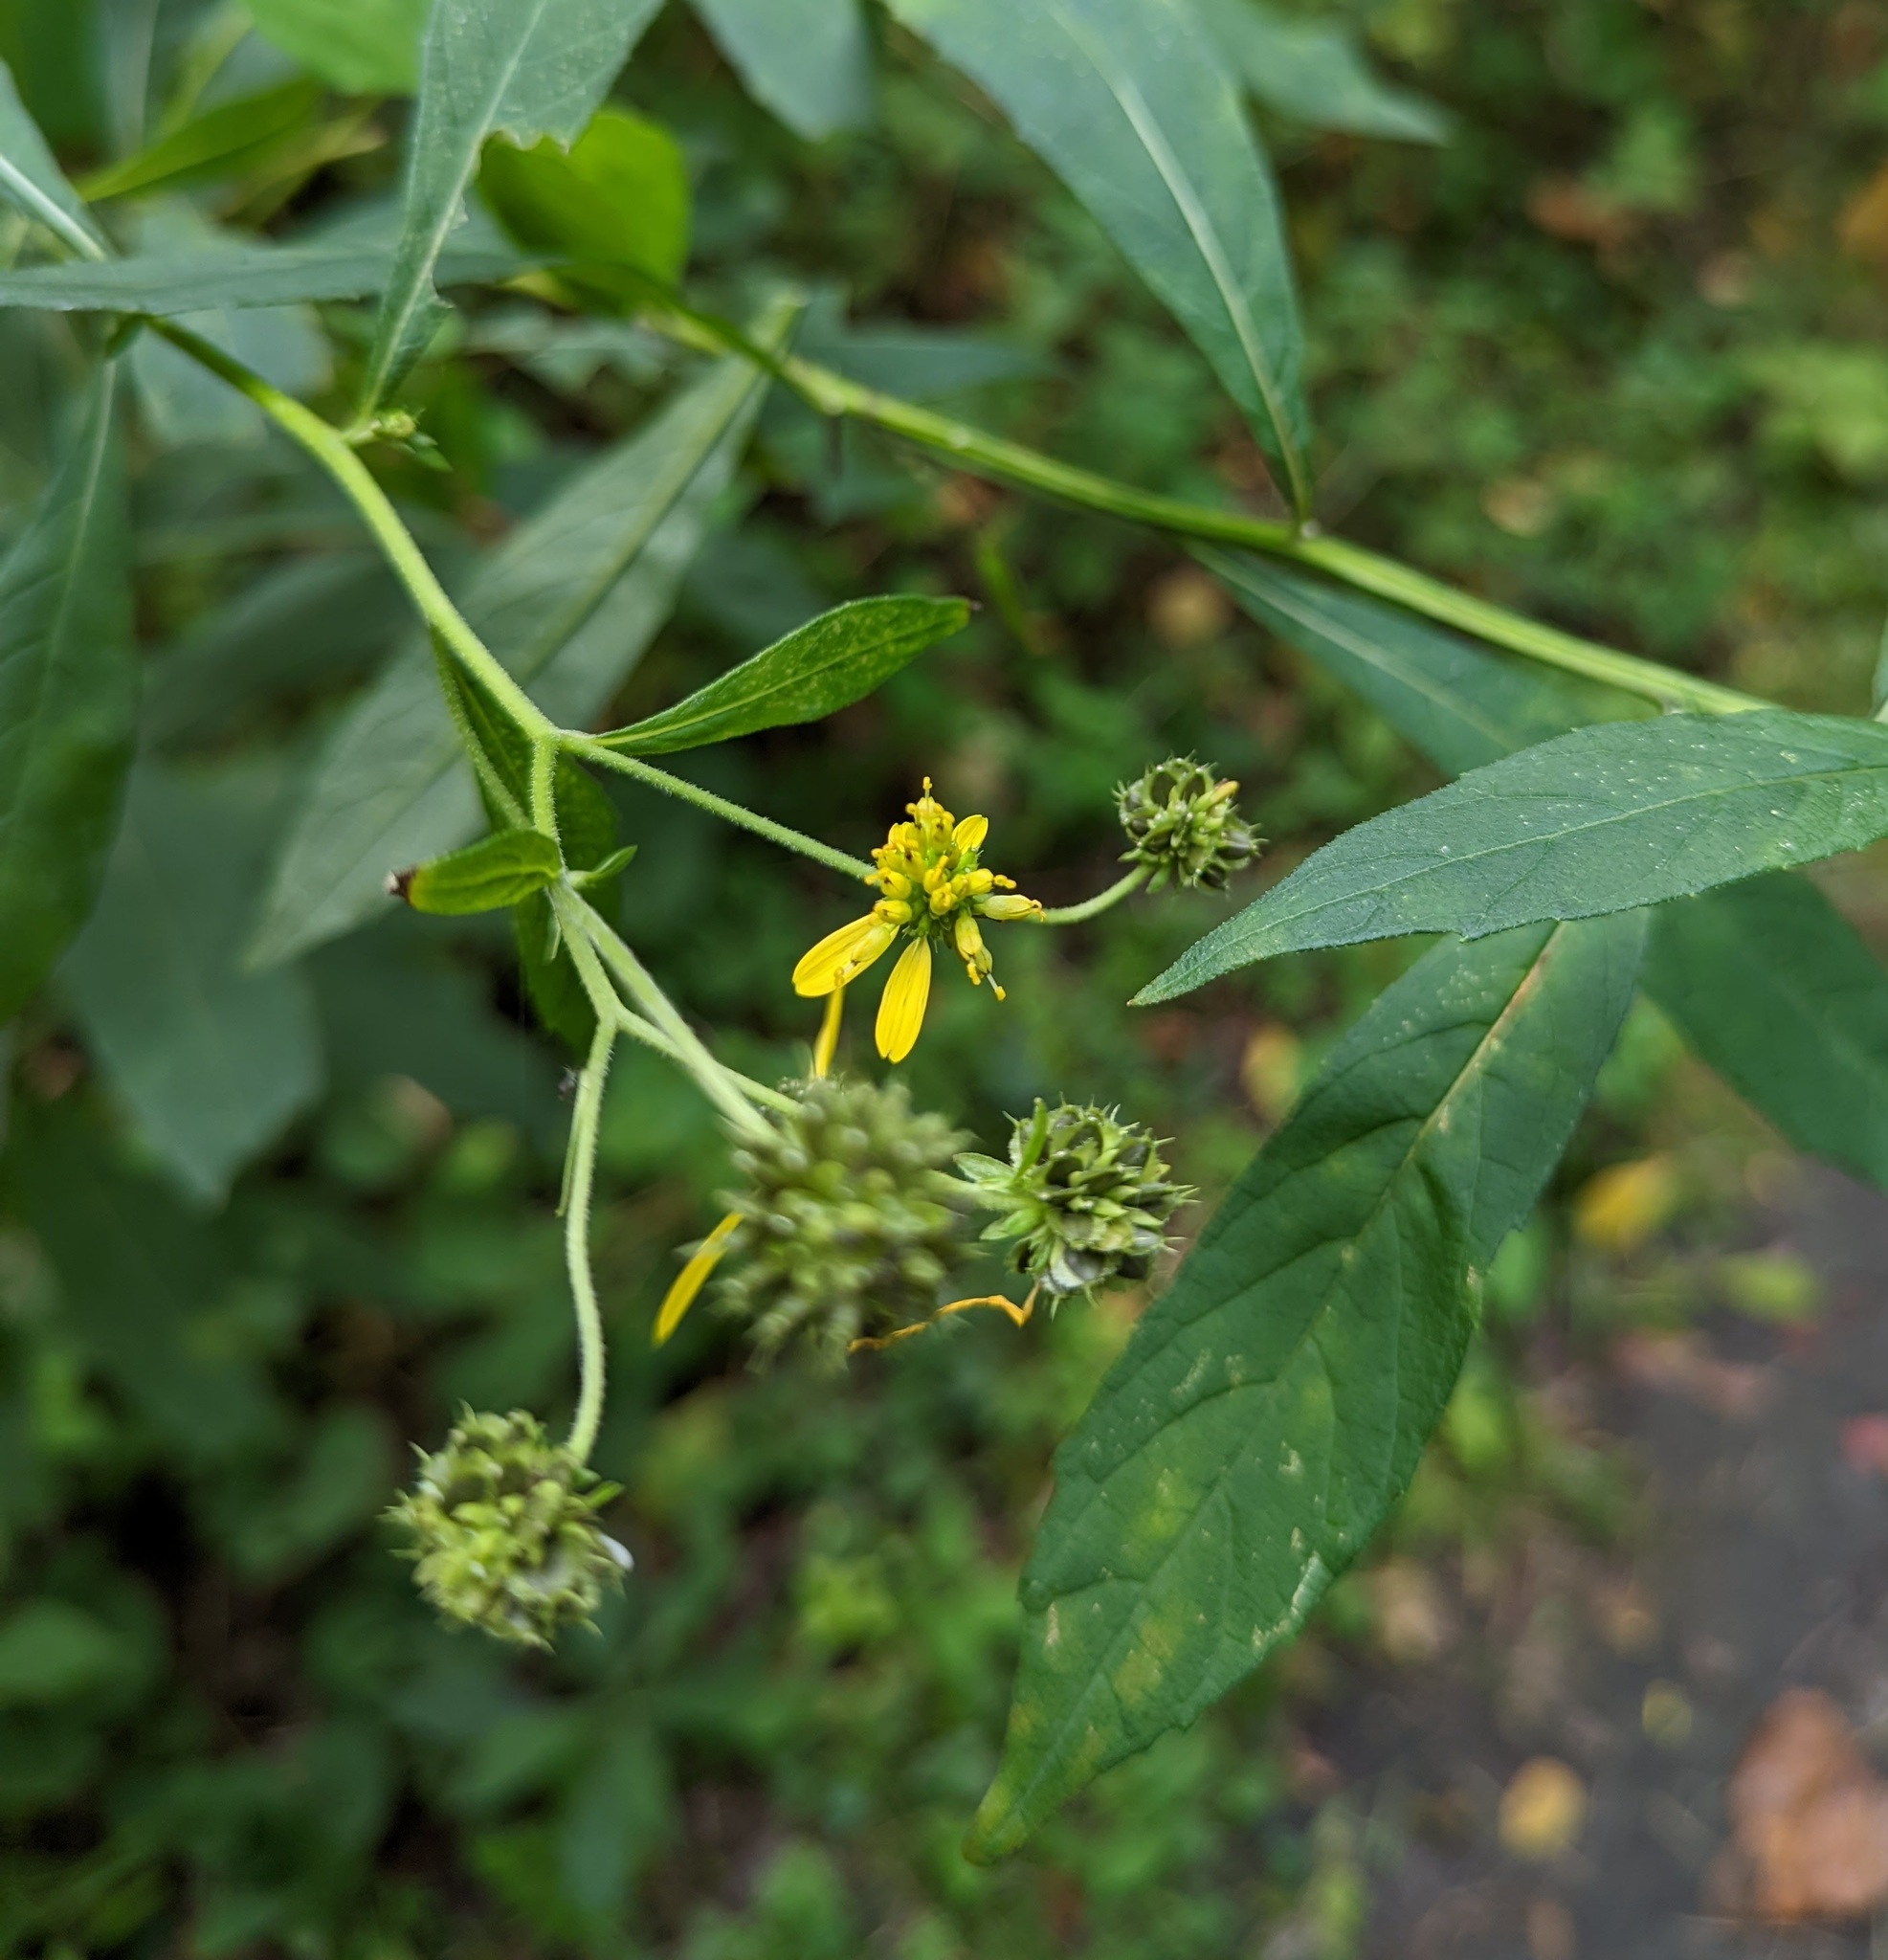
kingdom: Plantae
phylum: Tracheophyta
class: Magnoliopsida
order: Asterales
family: Asteraceae
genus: Verbesina
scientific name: Verbesina alternifolia
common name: Wingstem
